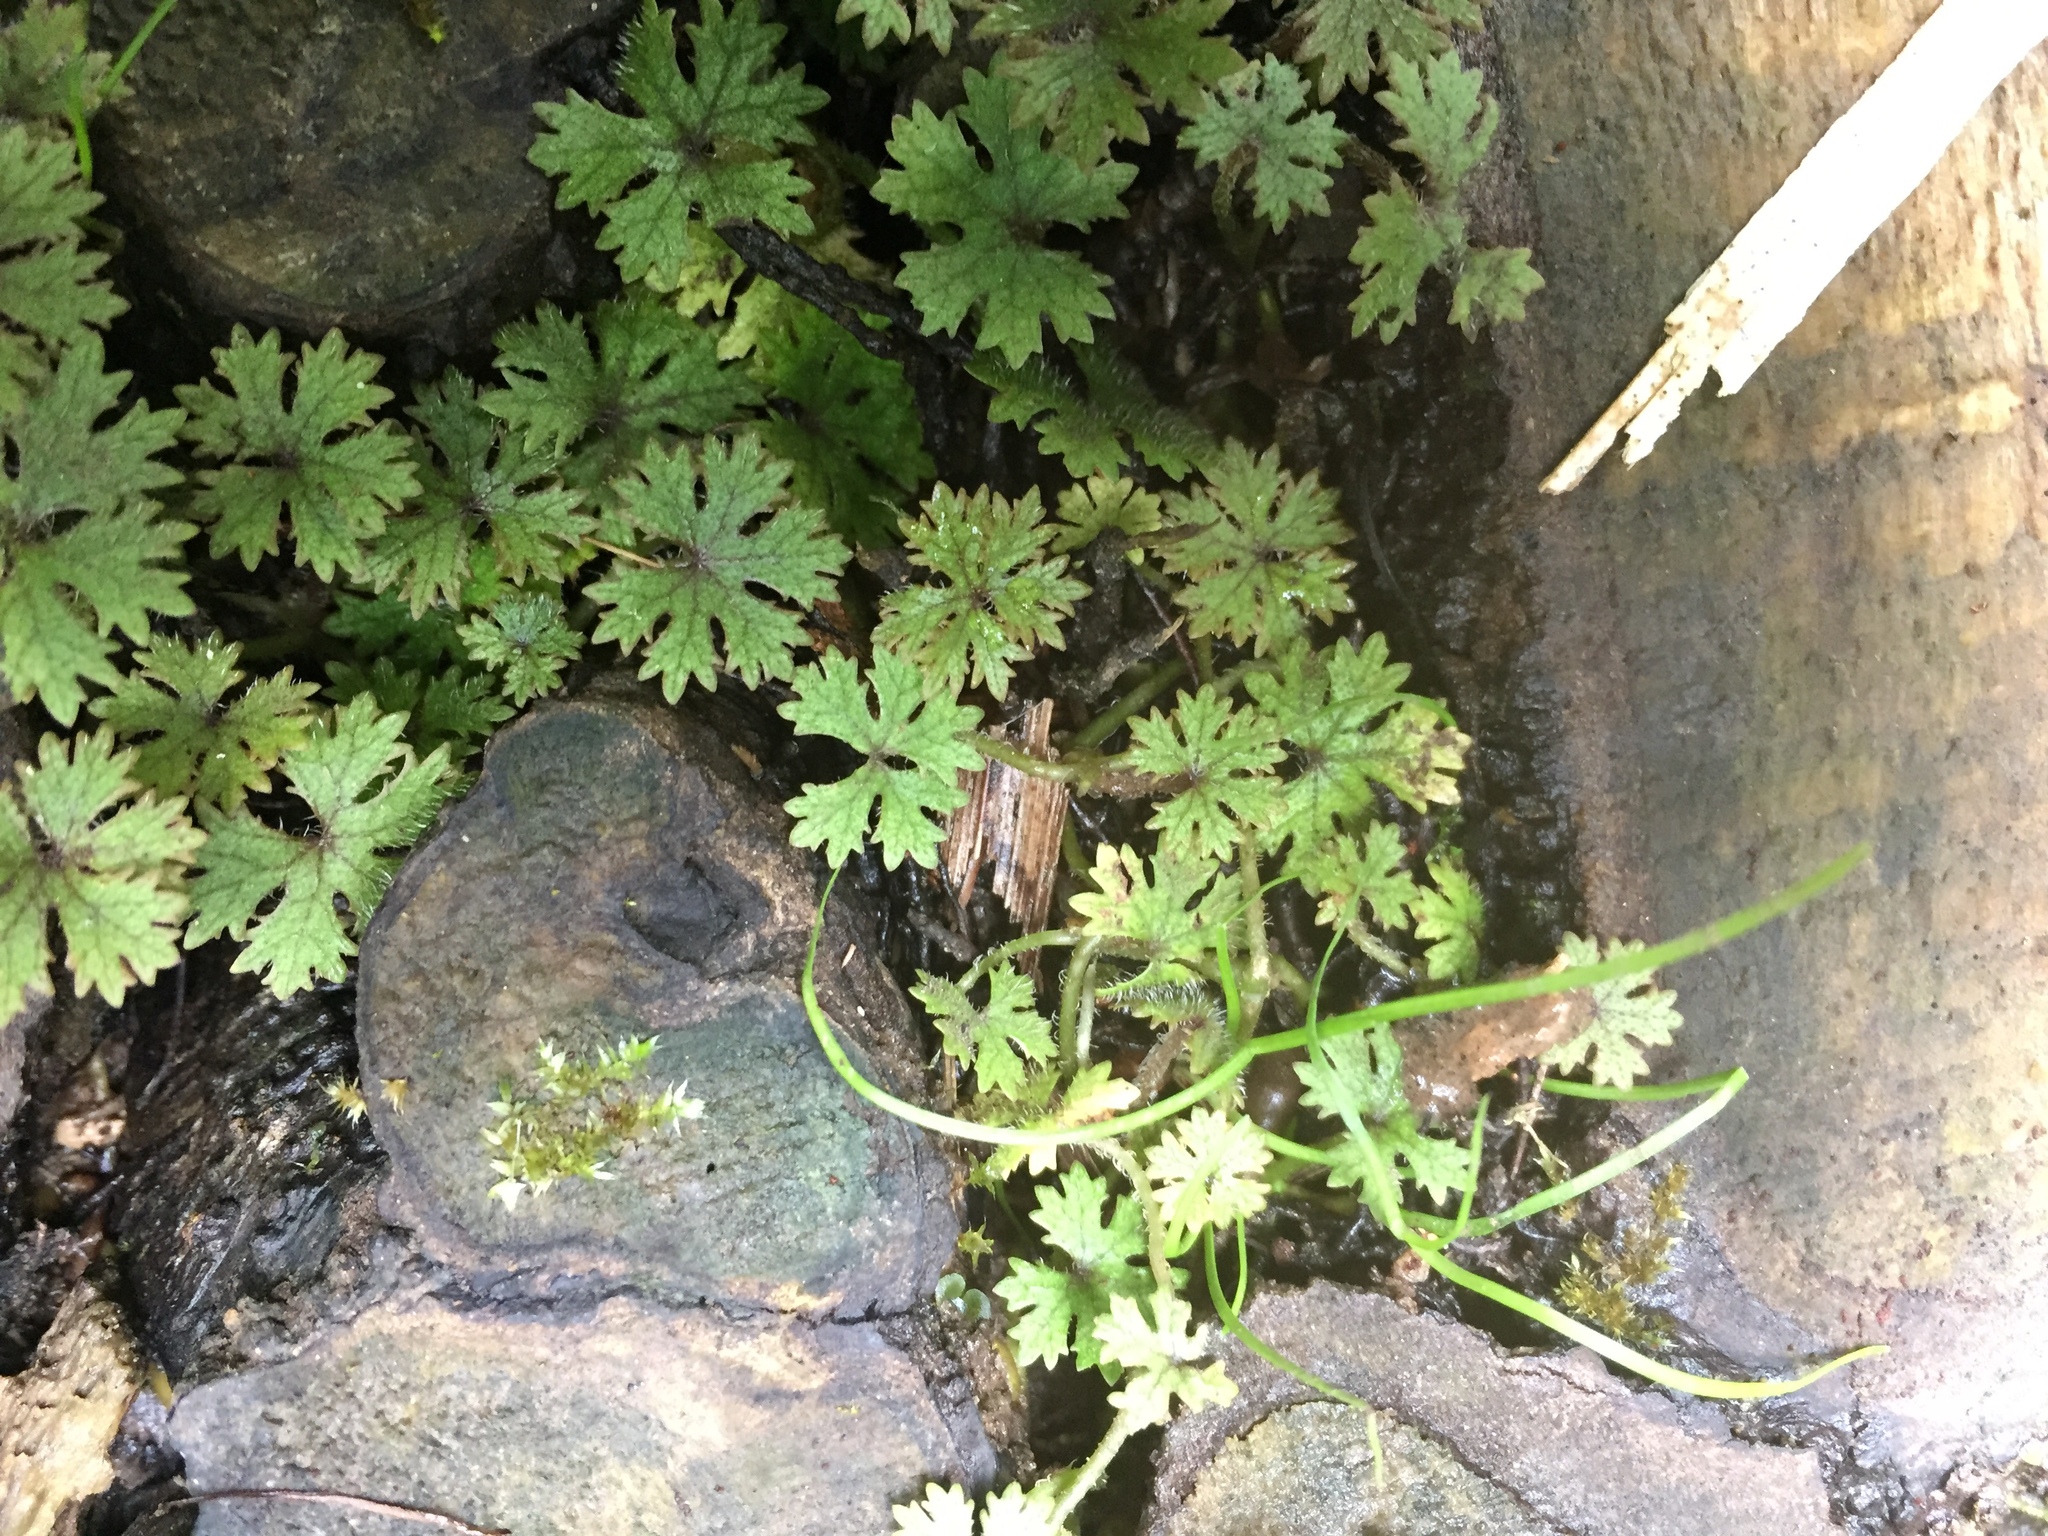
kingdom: Plantae
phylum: Tracheophyta
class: Magnoliopsida
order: Apiales
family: Araliaceae
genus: Hydrocotyle
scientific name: Hydrocotyle dissecta
